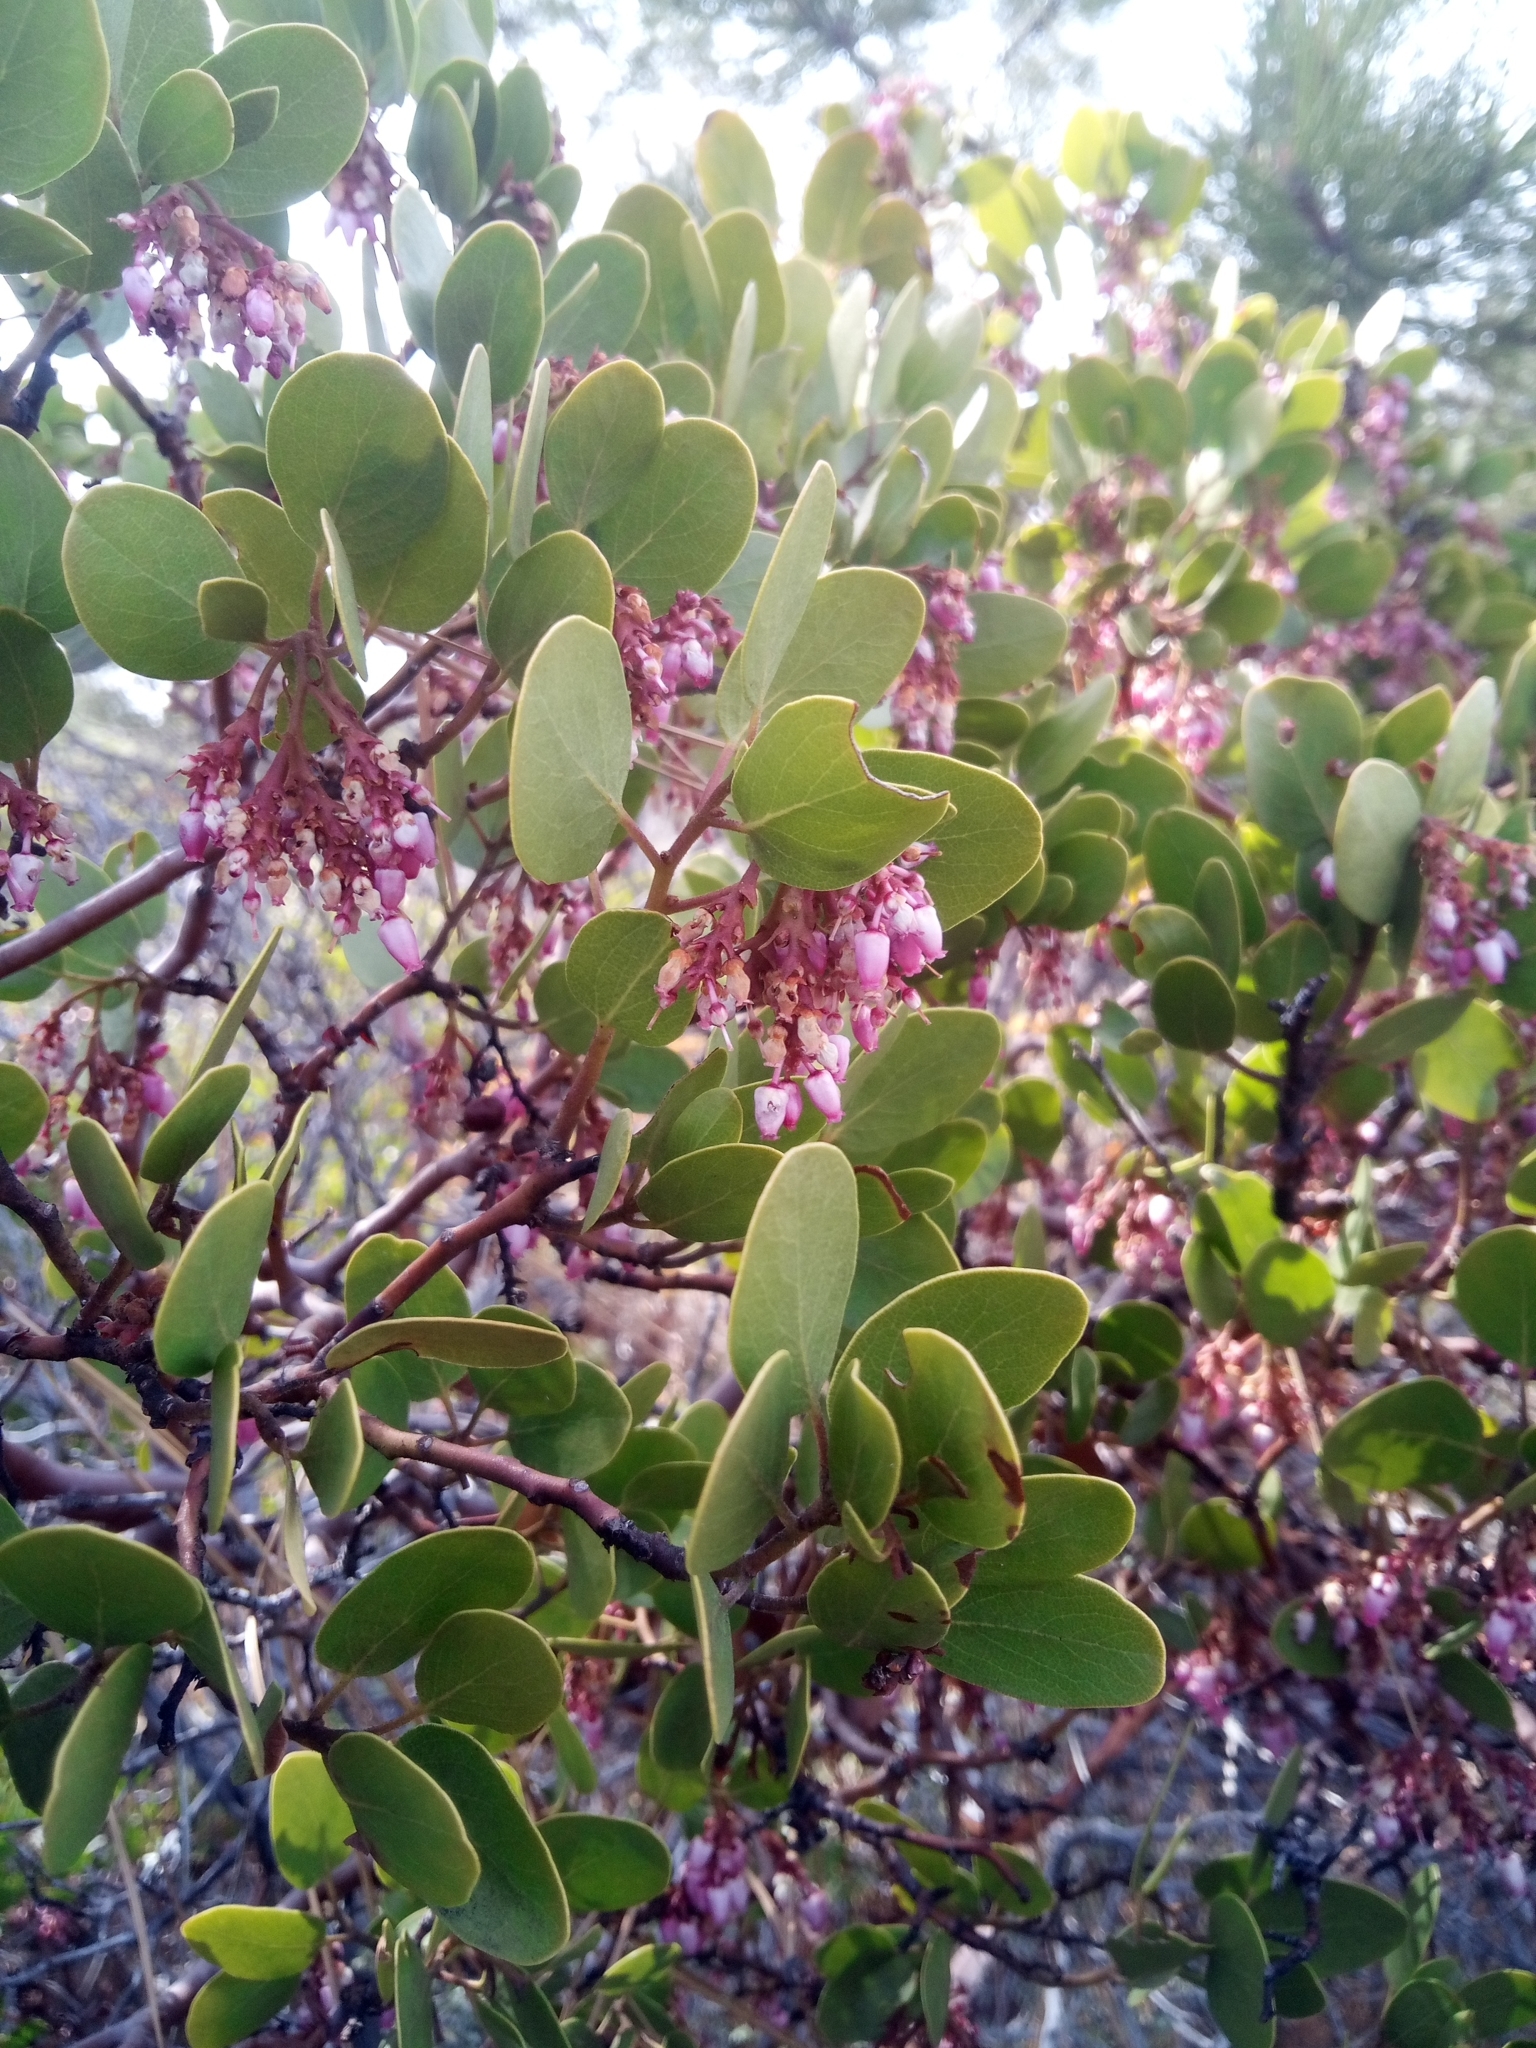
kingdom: Plantae
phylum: Tracheophyta
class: Magnoliopsida
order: Ericales
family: Ericaceae
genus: Arctostaphylos
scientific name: Arctostaphylos patula
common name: Green-leaf manzanita
